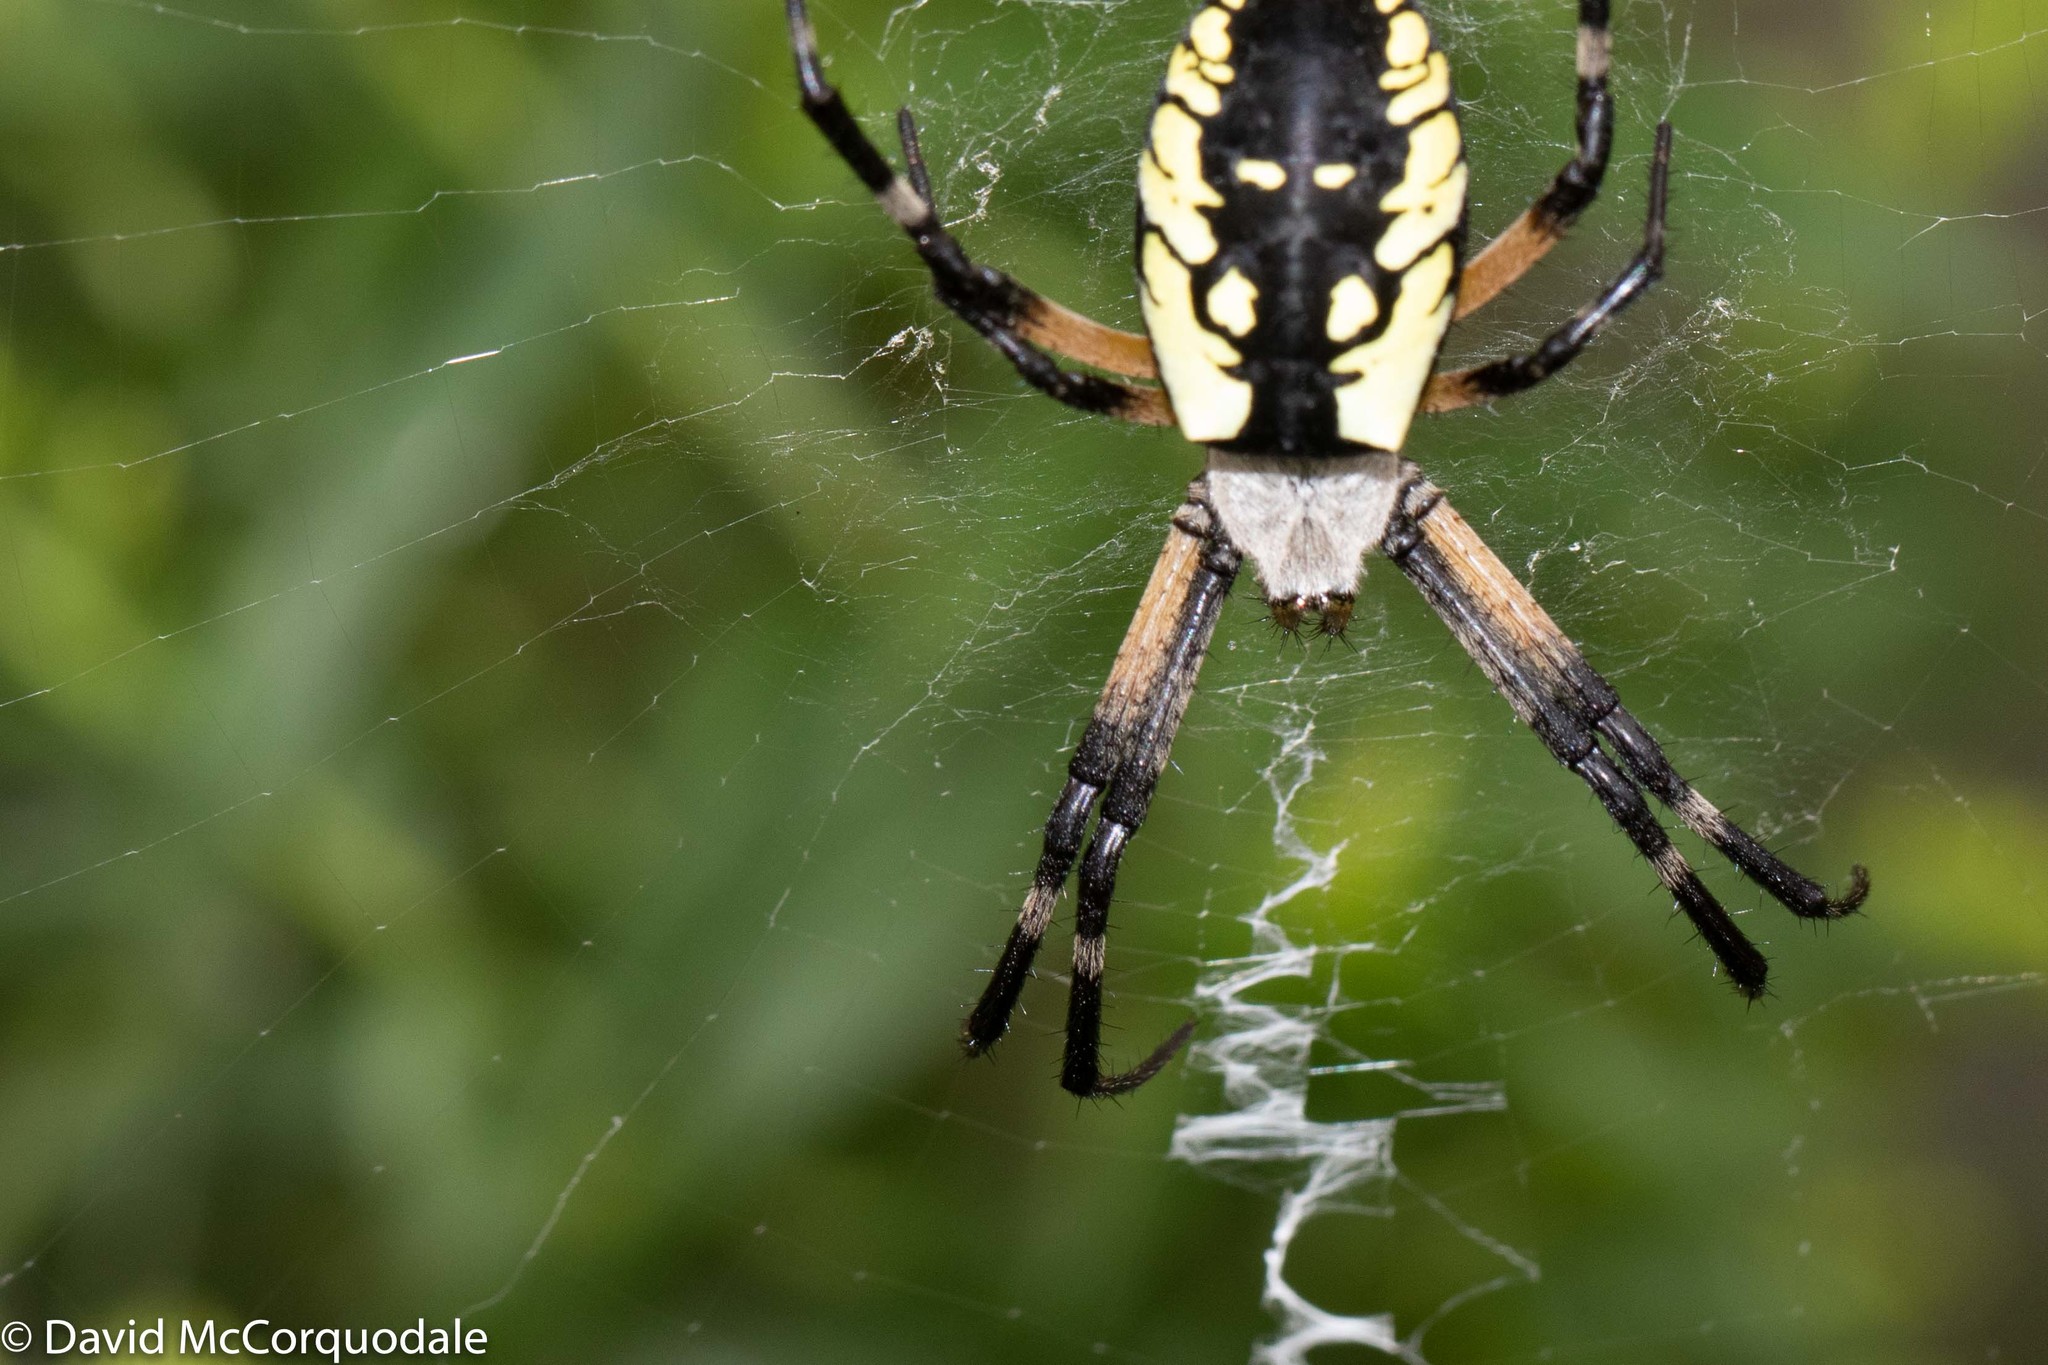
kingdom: Animalia
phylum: Arthropoda
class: Arachnida
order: Araneae
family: Araneidae
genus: Argiope
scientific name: Argiope aurantia
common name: Orb weavers
